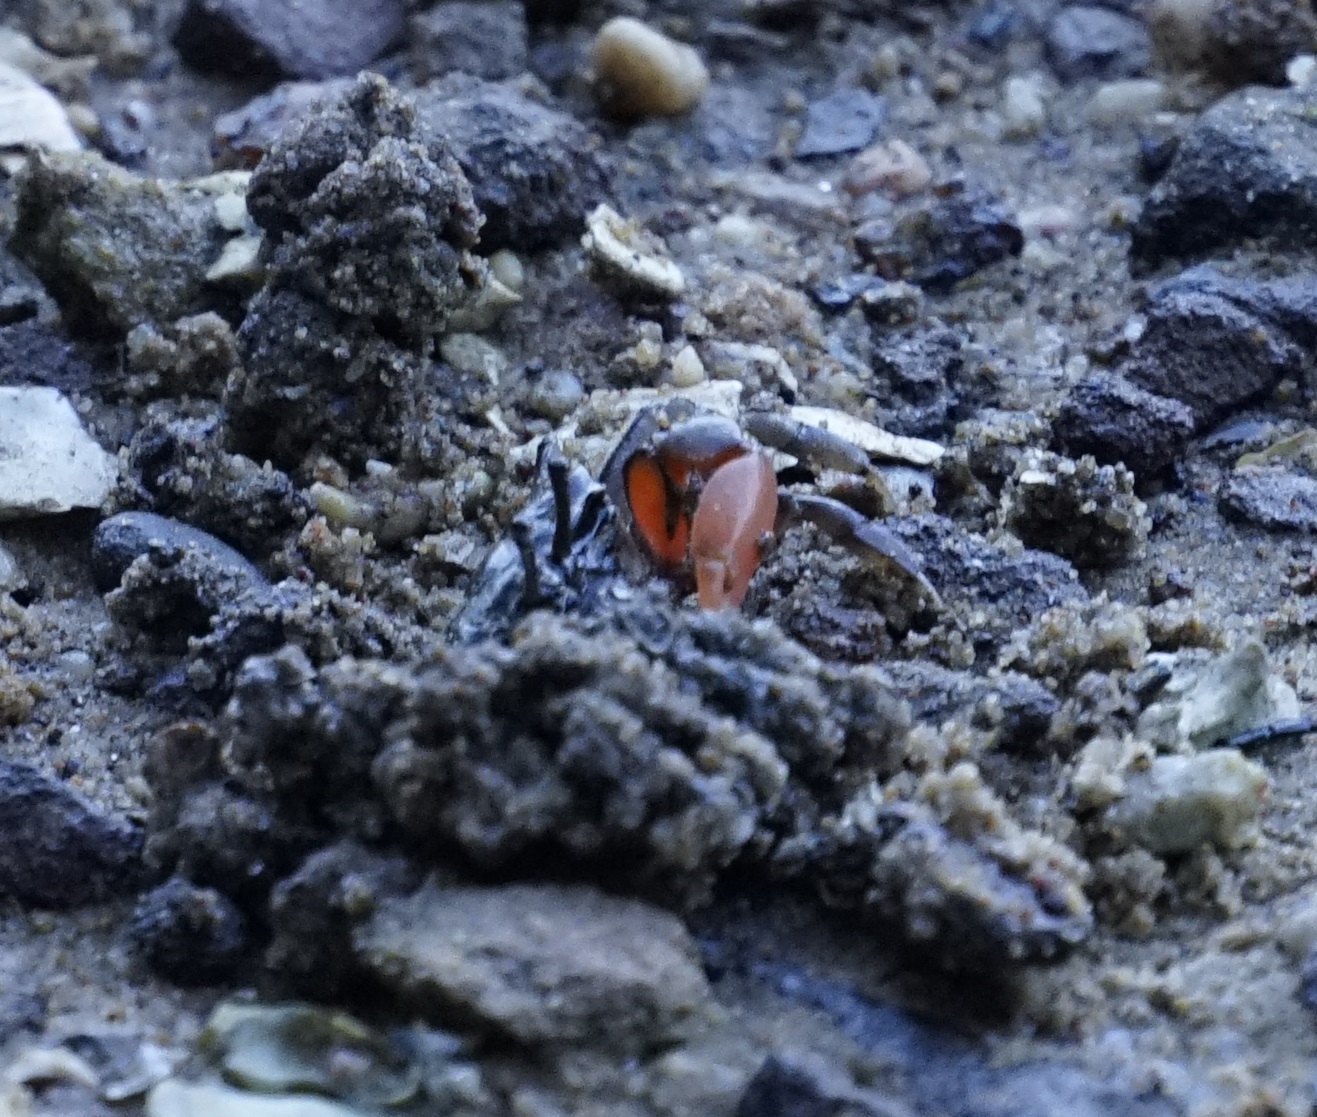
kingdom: Animalia
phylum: Arthropoda
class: Malacostraca
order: Decapoda
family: Heloeciidae
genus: Heloecius
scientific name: Heloecius cordiformis
